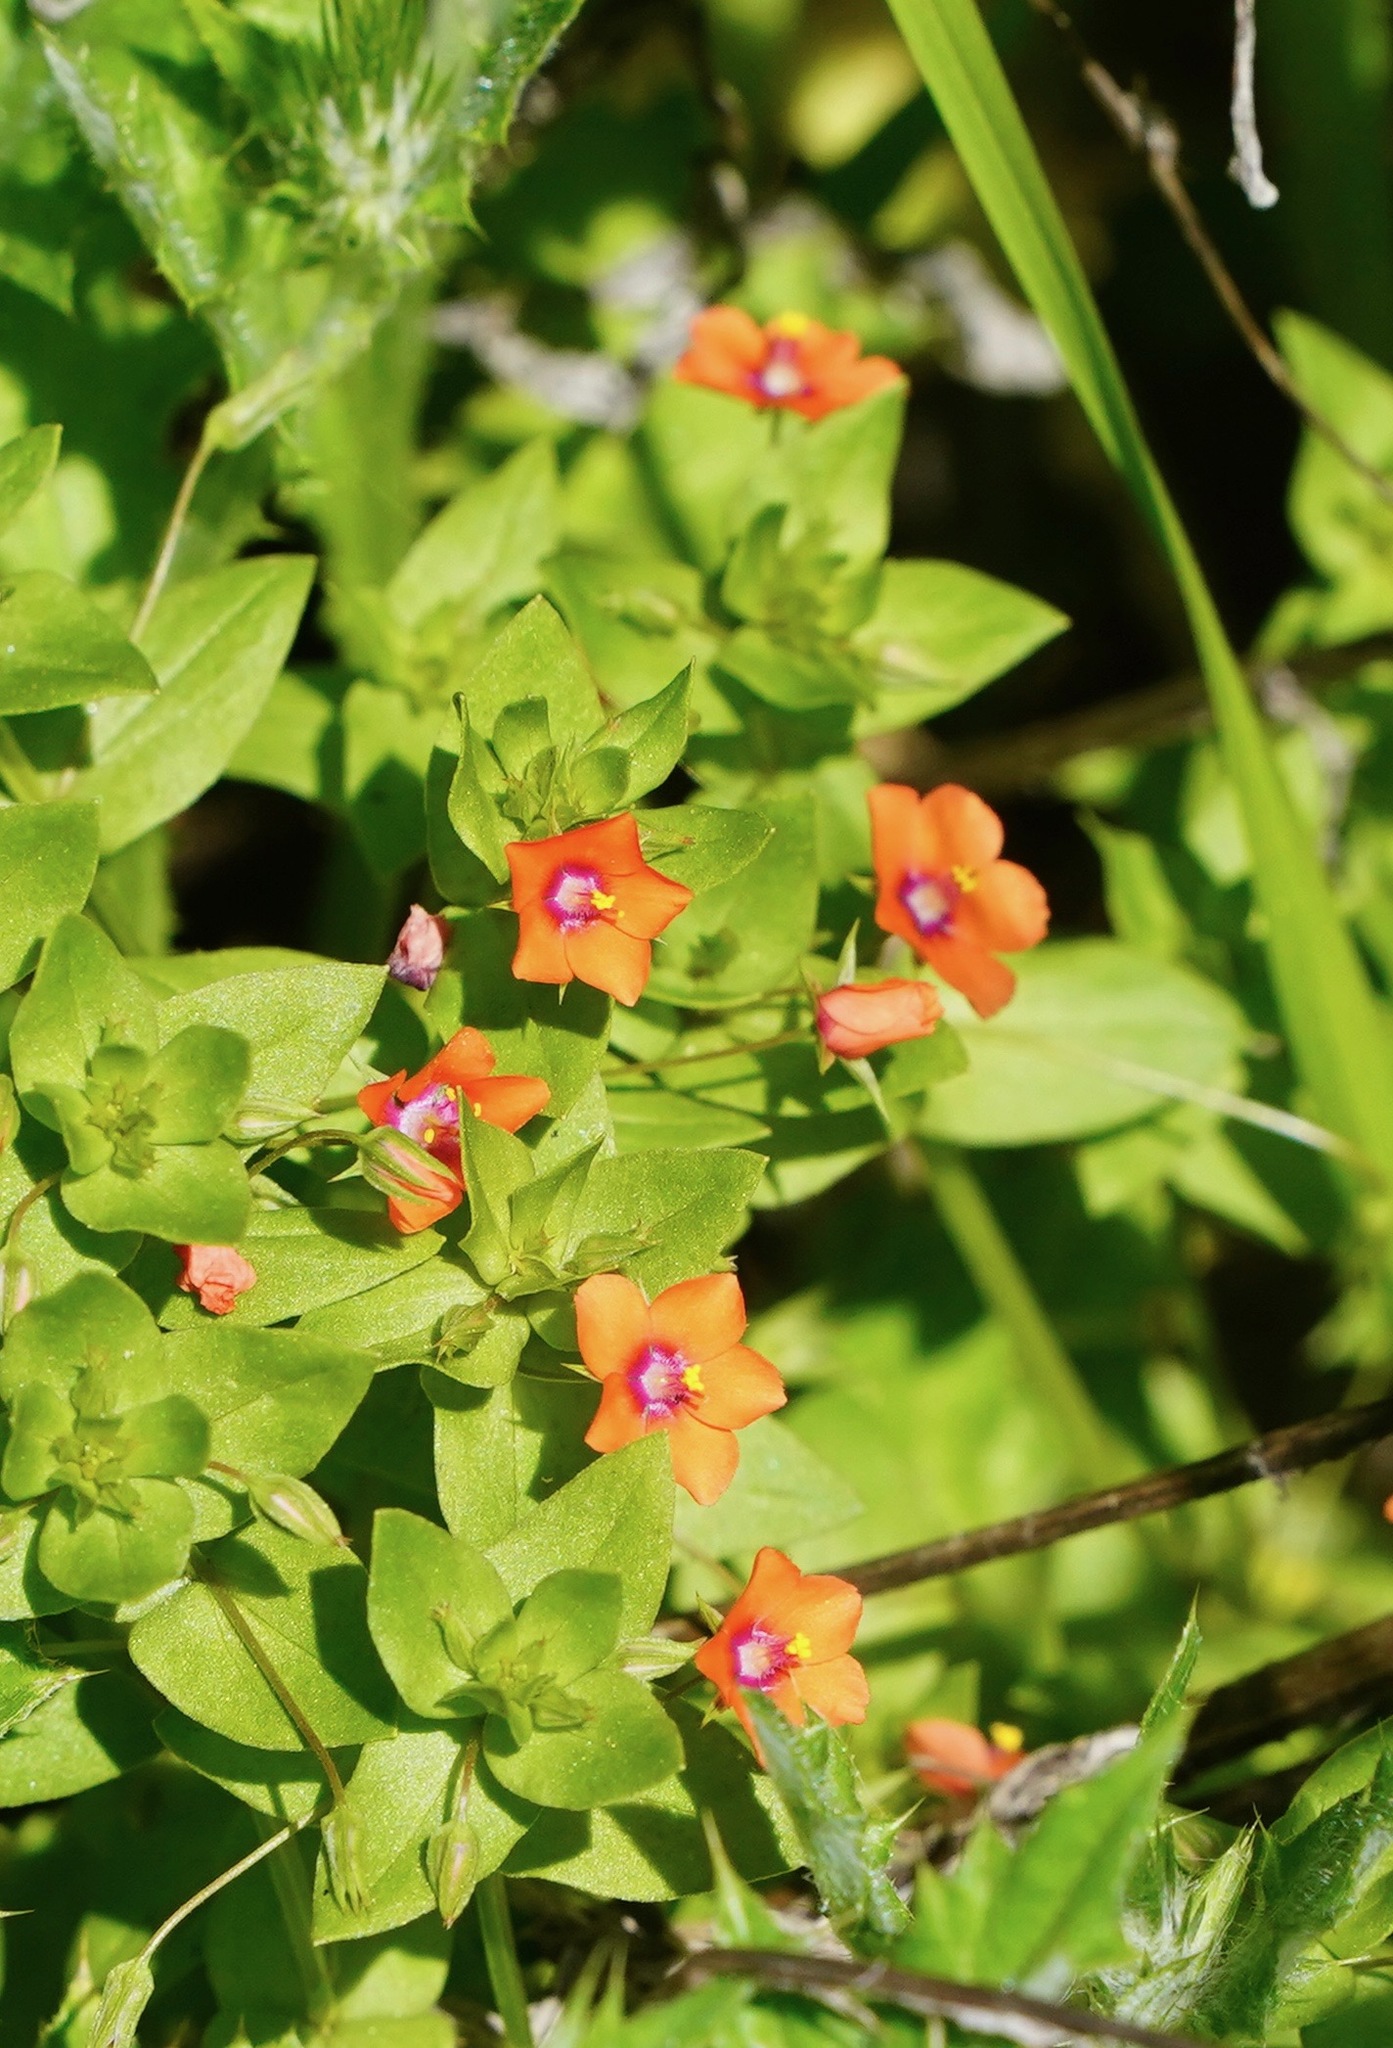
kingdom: Plantae
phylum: Tracheophyta
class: Magnoliopsida
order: Ericales
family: Primulaceae
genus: Lysimachia
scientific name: Lysimachia arvensis
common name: Scarlet pimpernel
